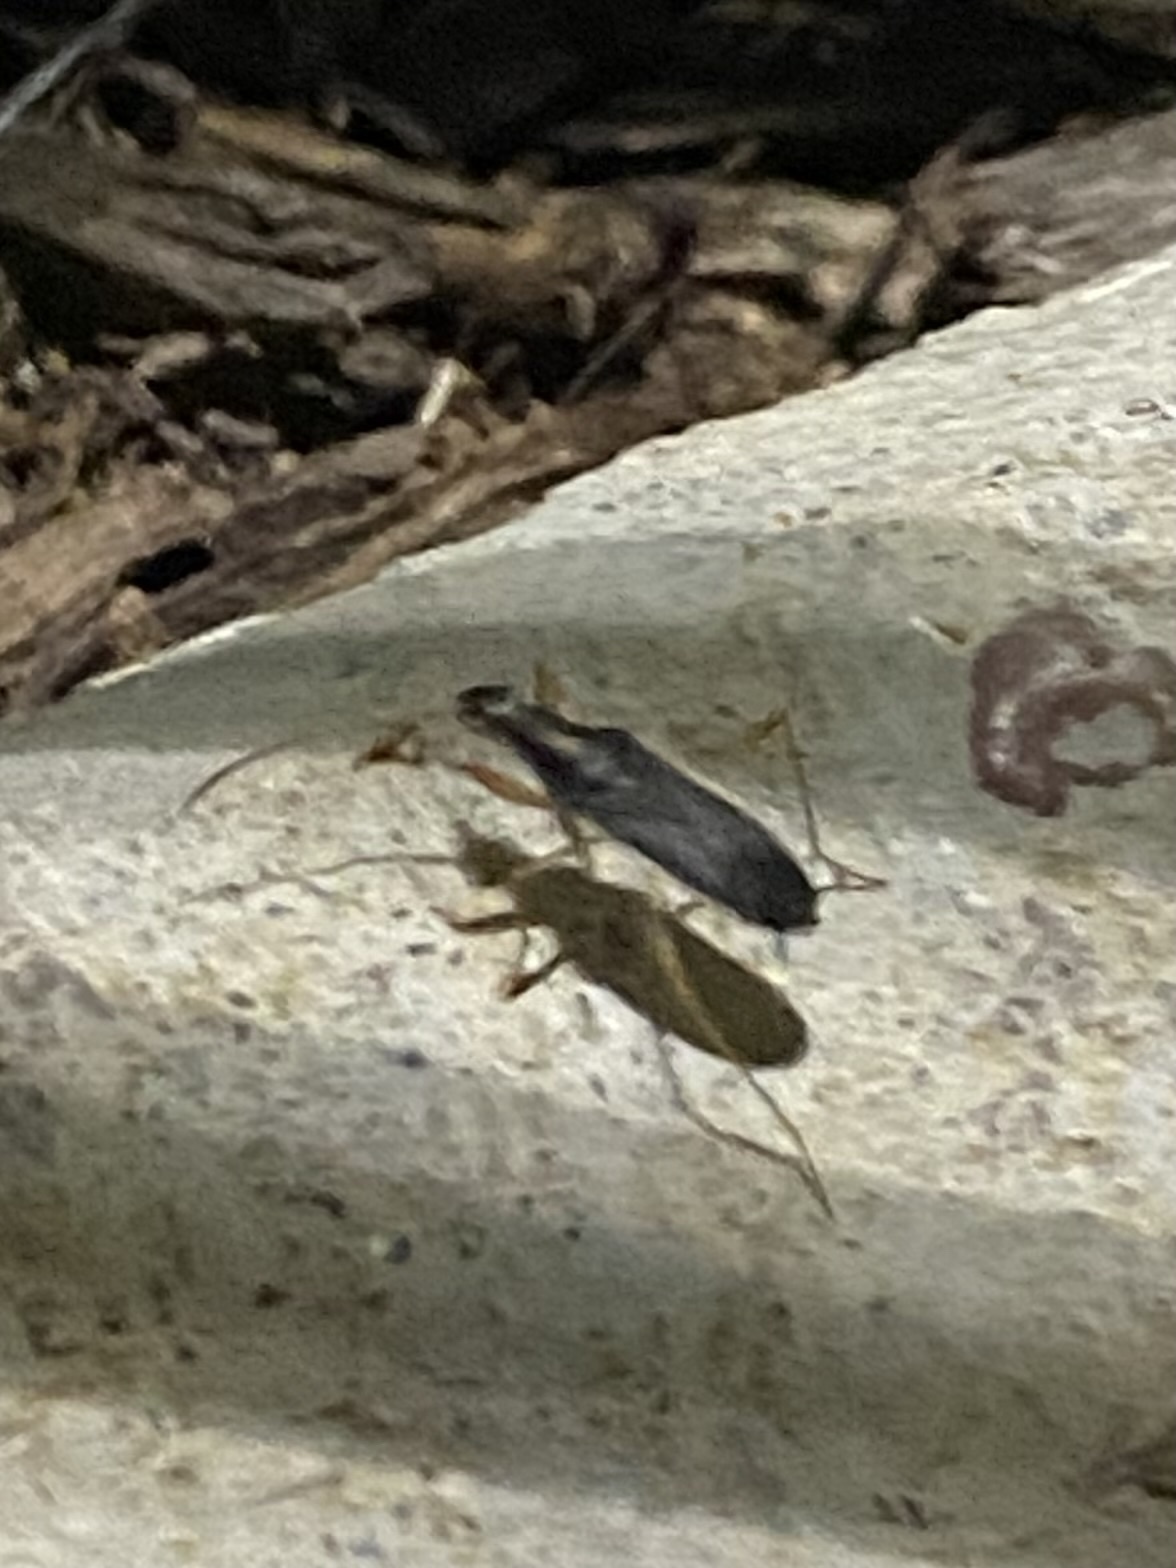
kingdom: Animalia
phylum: Arthropoda
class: Insecta
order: Hemiptera
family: Rhyparochromidae
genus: Cnemodus
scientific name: Cnemodus mavortius
